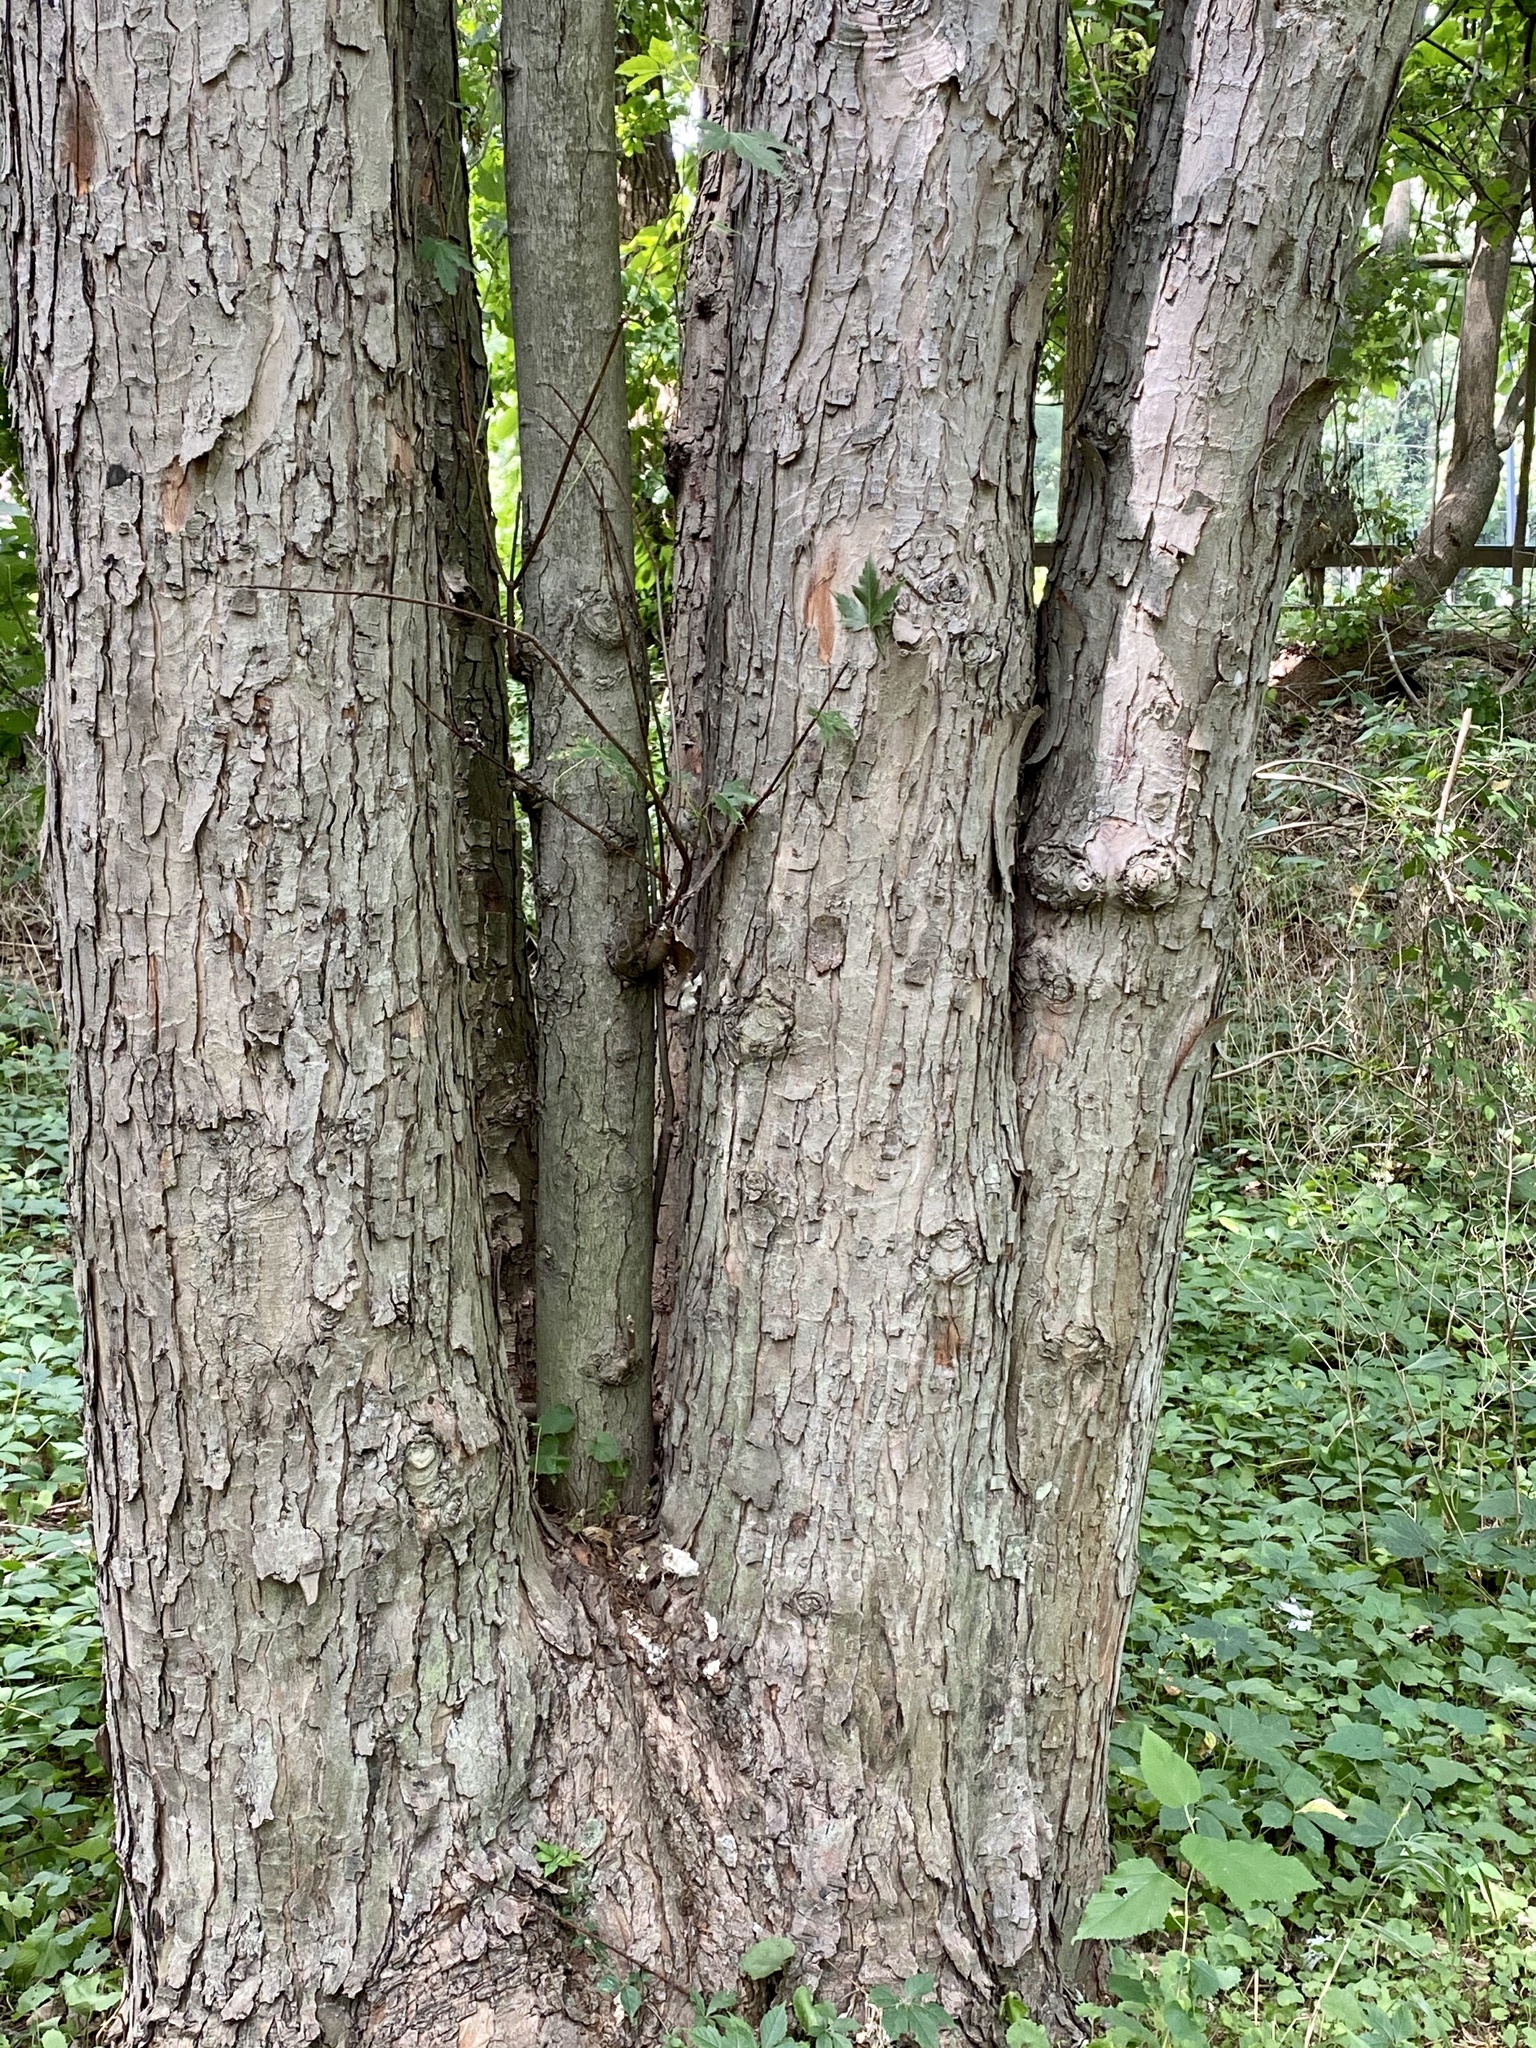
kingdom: Plantae
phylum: Tracheophyta
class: Magnoliopsida
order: Sapindales
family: Sapindaceae
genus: Acer
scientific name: Acer saccharinum
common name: Silver maple
